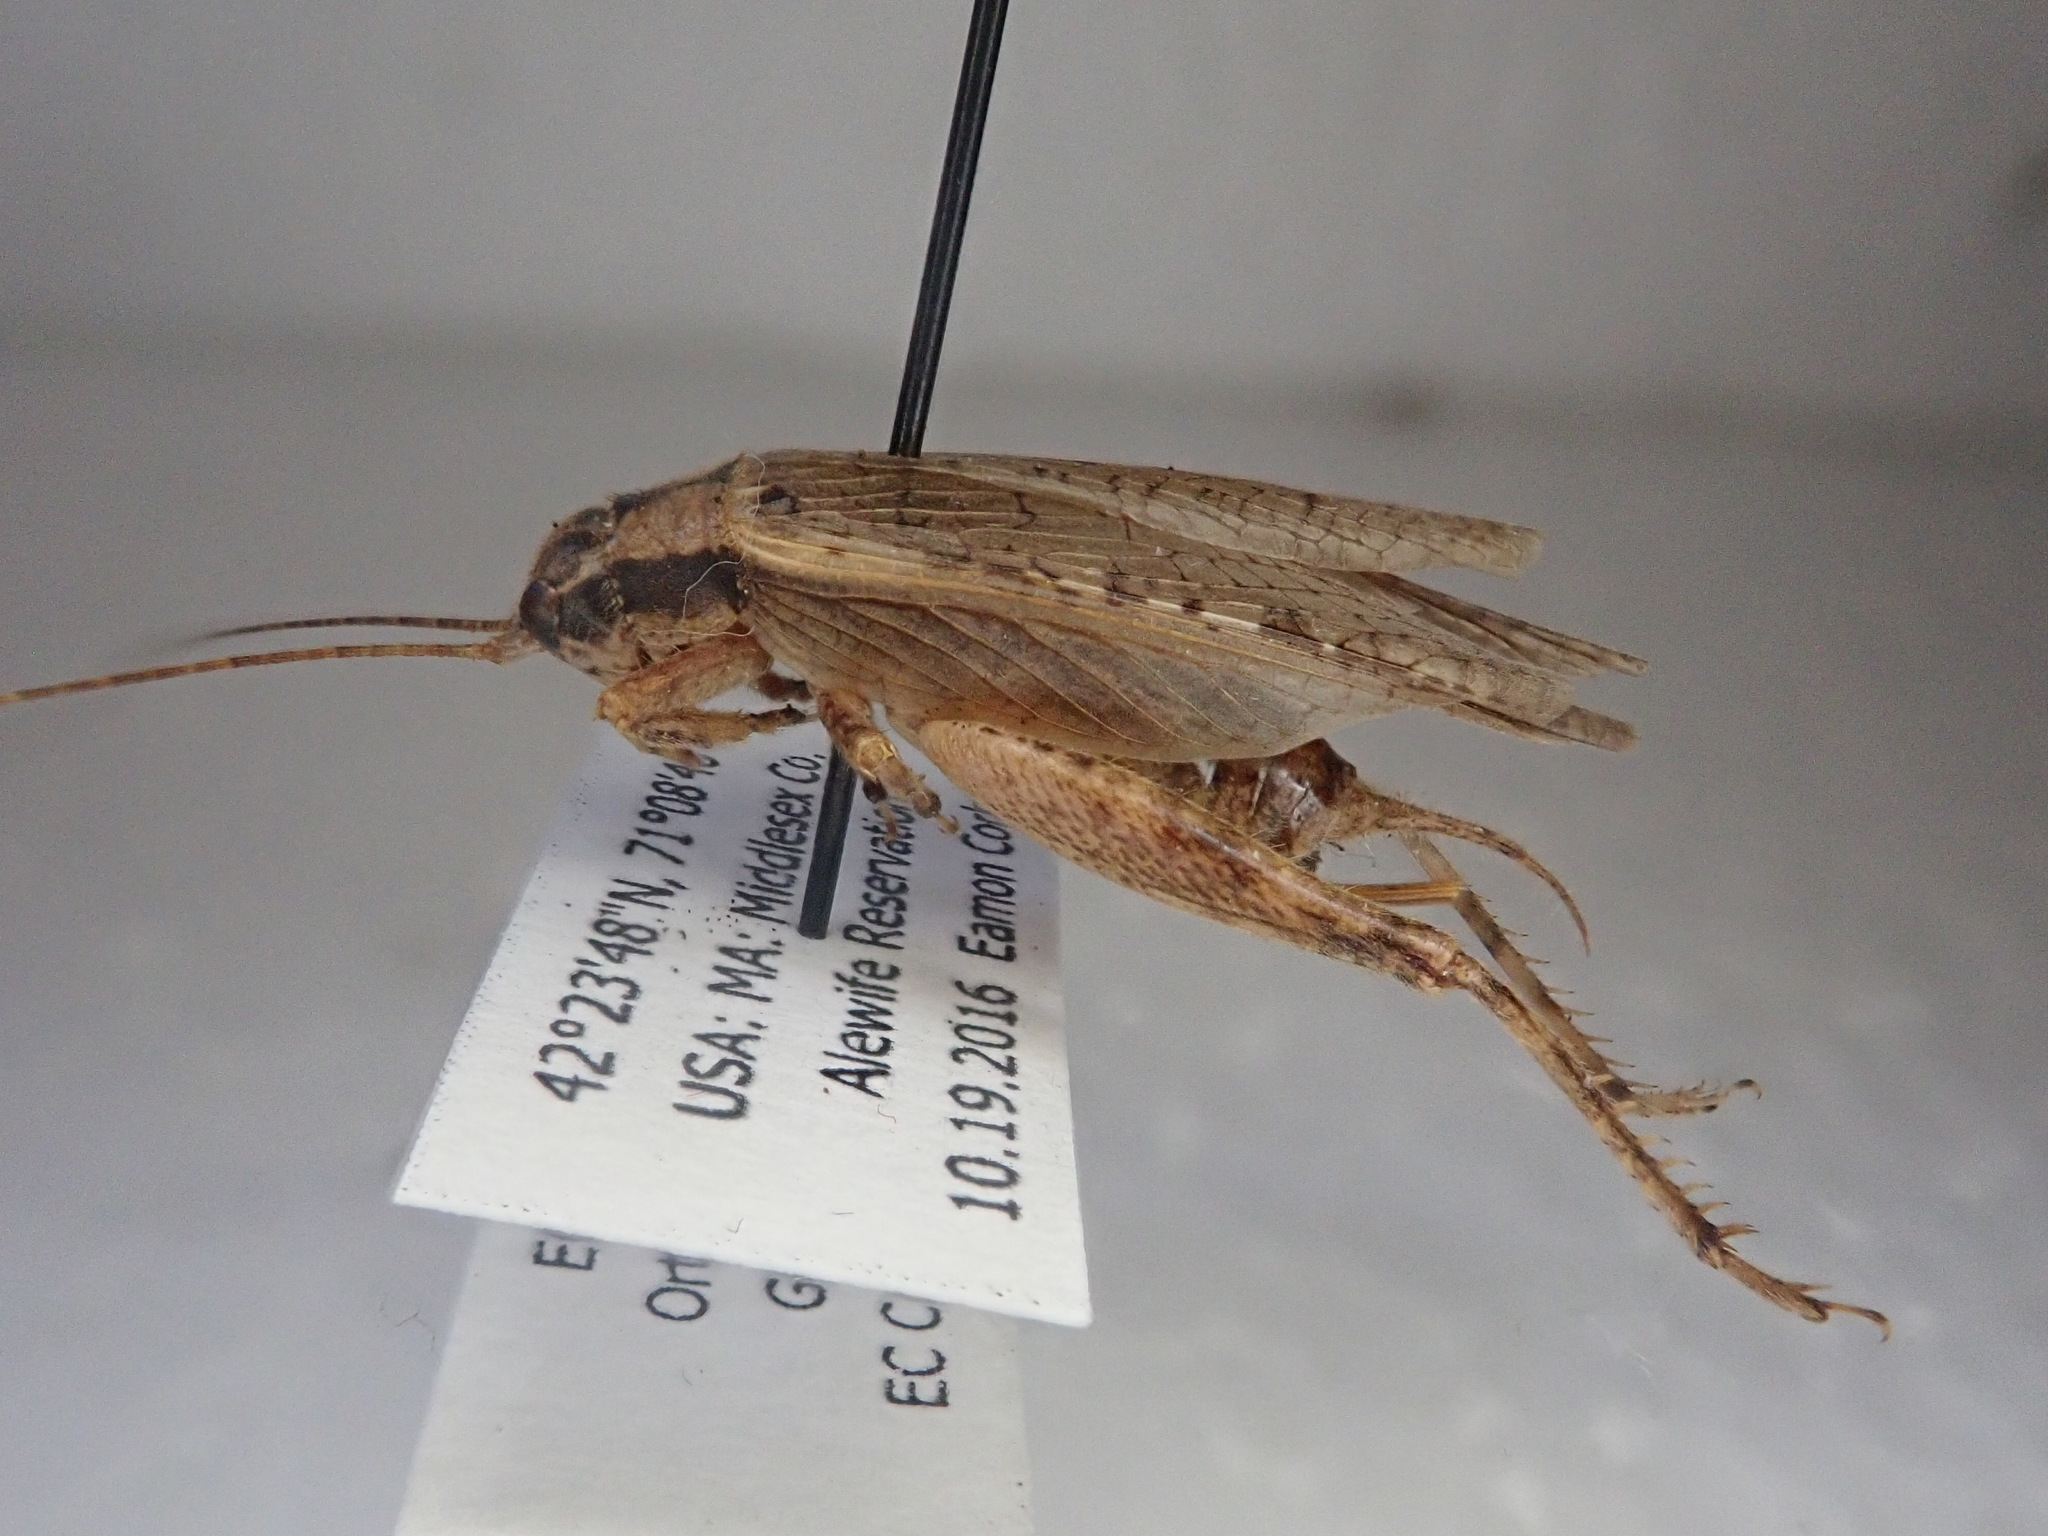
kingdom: Animalia
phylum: Arthropoda
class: Insecta
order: Orthoptera
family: Gryllidae
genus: Hapithus
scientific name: Hapithus saltator
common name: Jumping bush cricket
